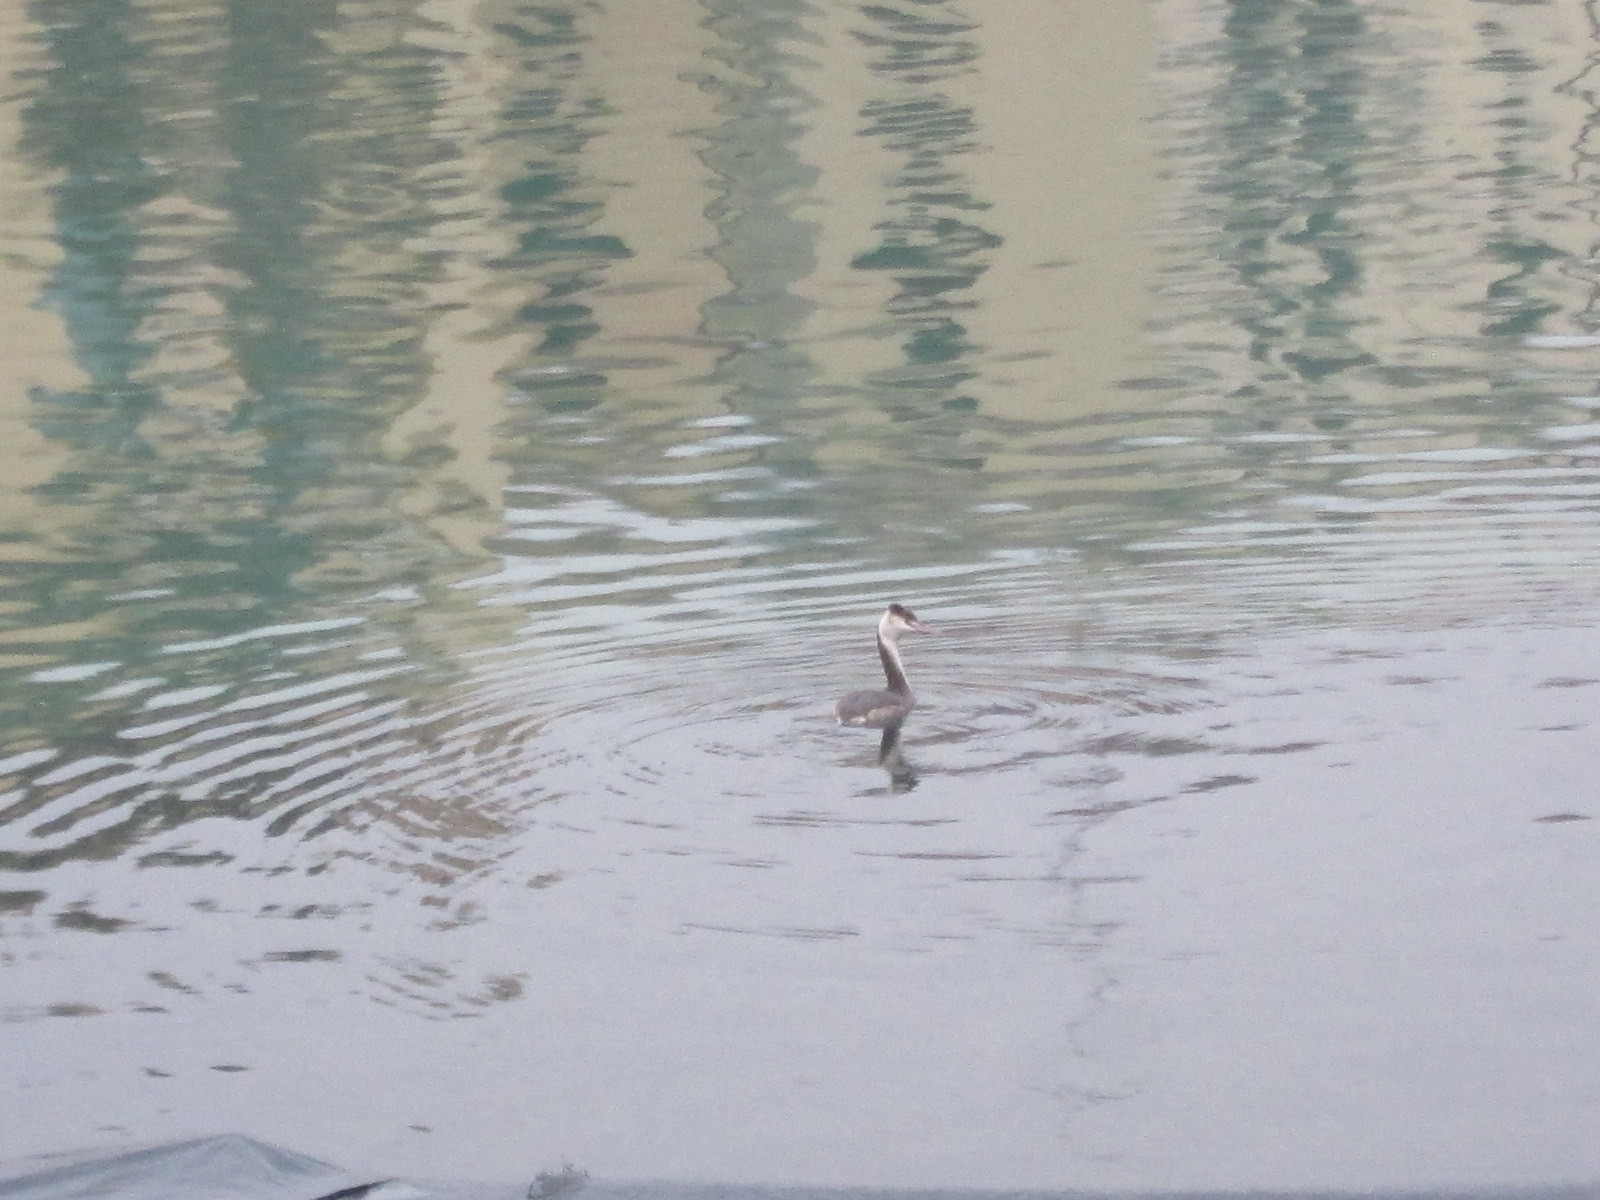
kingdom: Animalia
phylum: Chordata
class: Aves
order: Podicipediformes
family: Podicipedidae
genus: Podiceps
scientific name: Podiceps cristatus
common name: Great crested grebe
